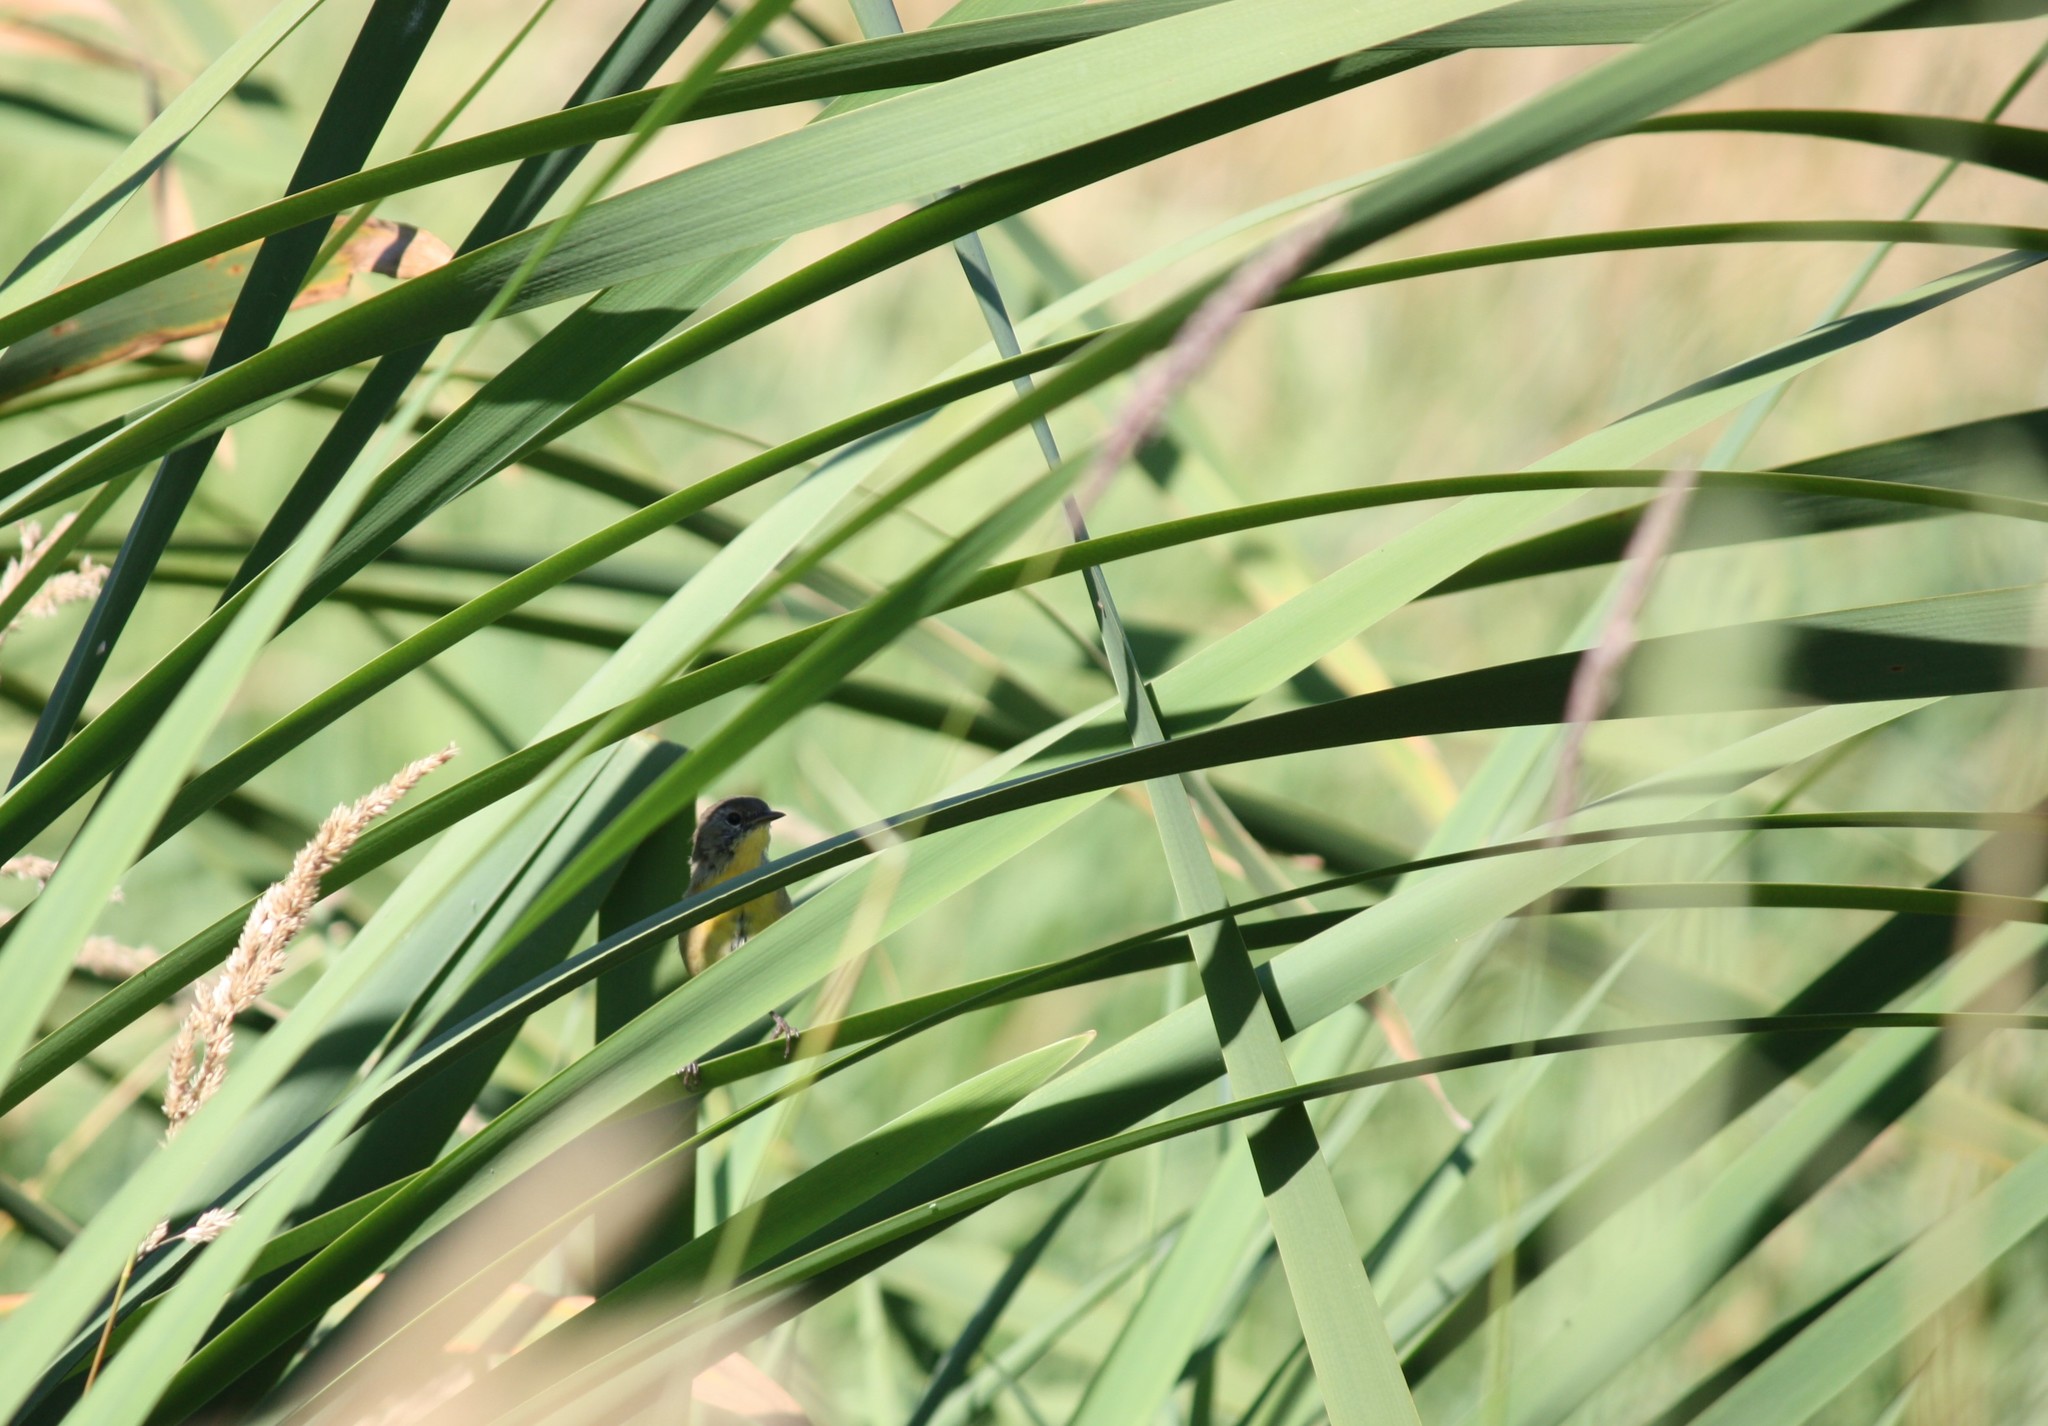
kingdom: Animalia
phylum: Chordata
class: Aves
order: Passeriformes
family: Parulidae
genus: Geothlypis
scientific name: Geothlypis trichas
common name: Common yellowthroat
